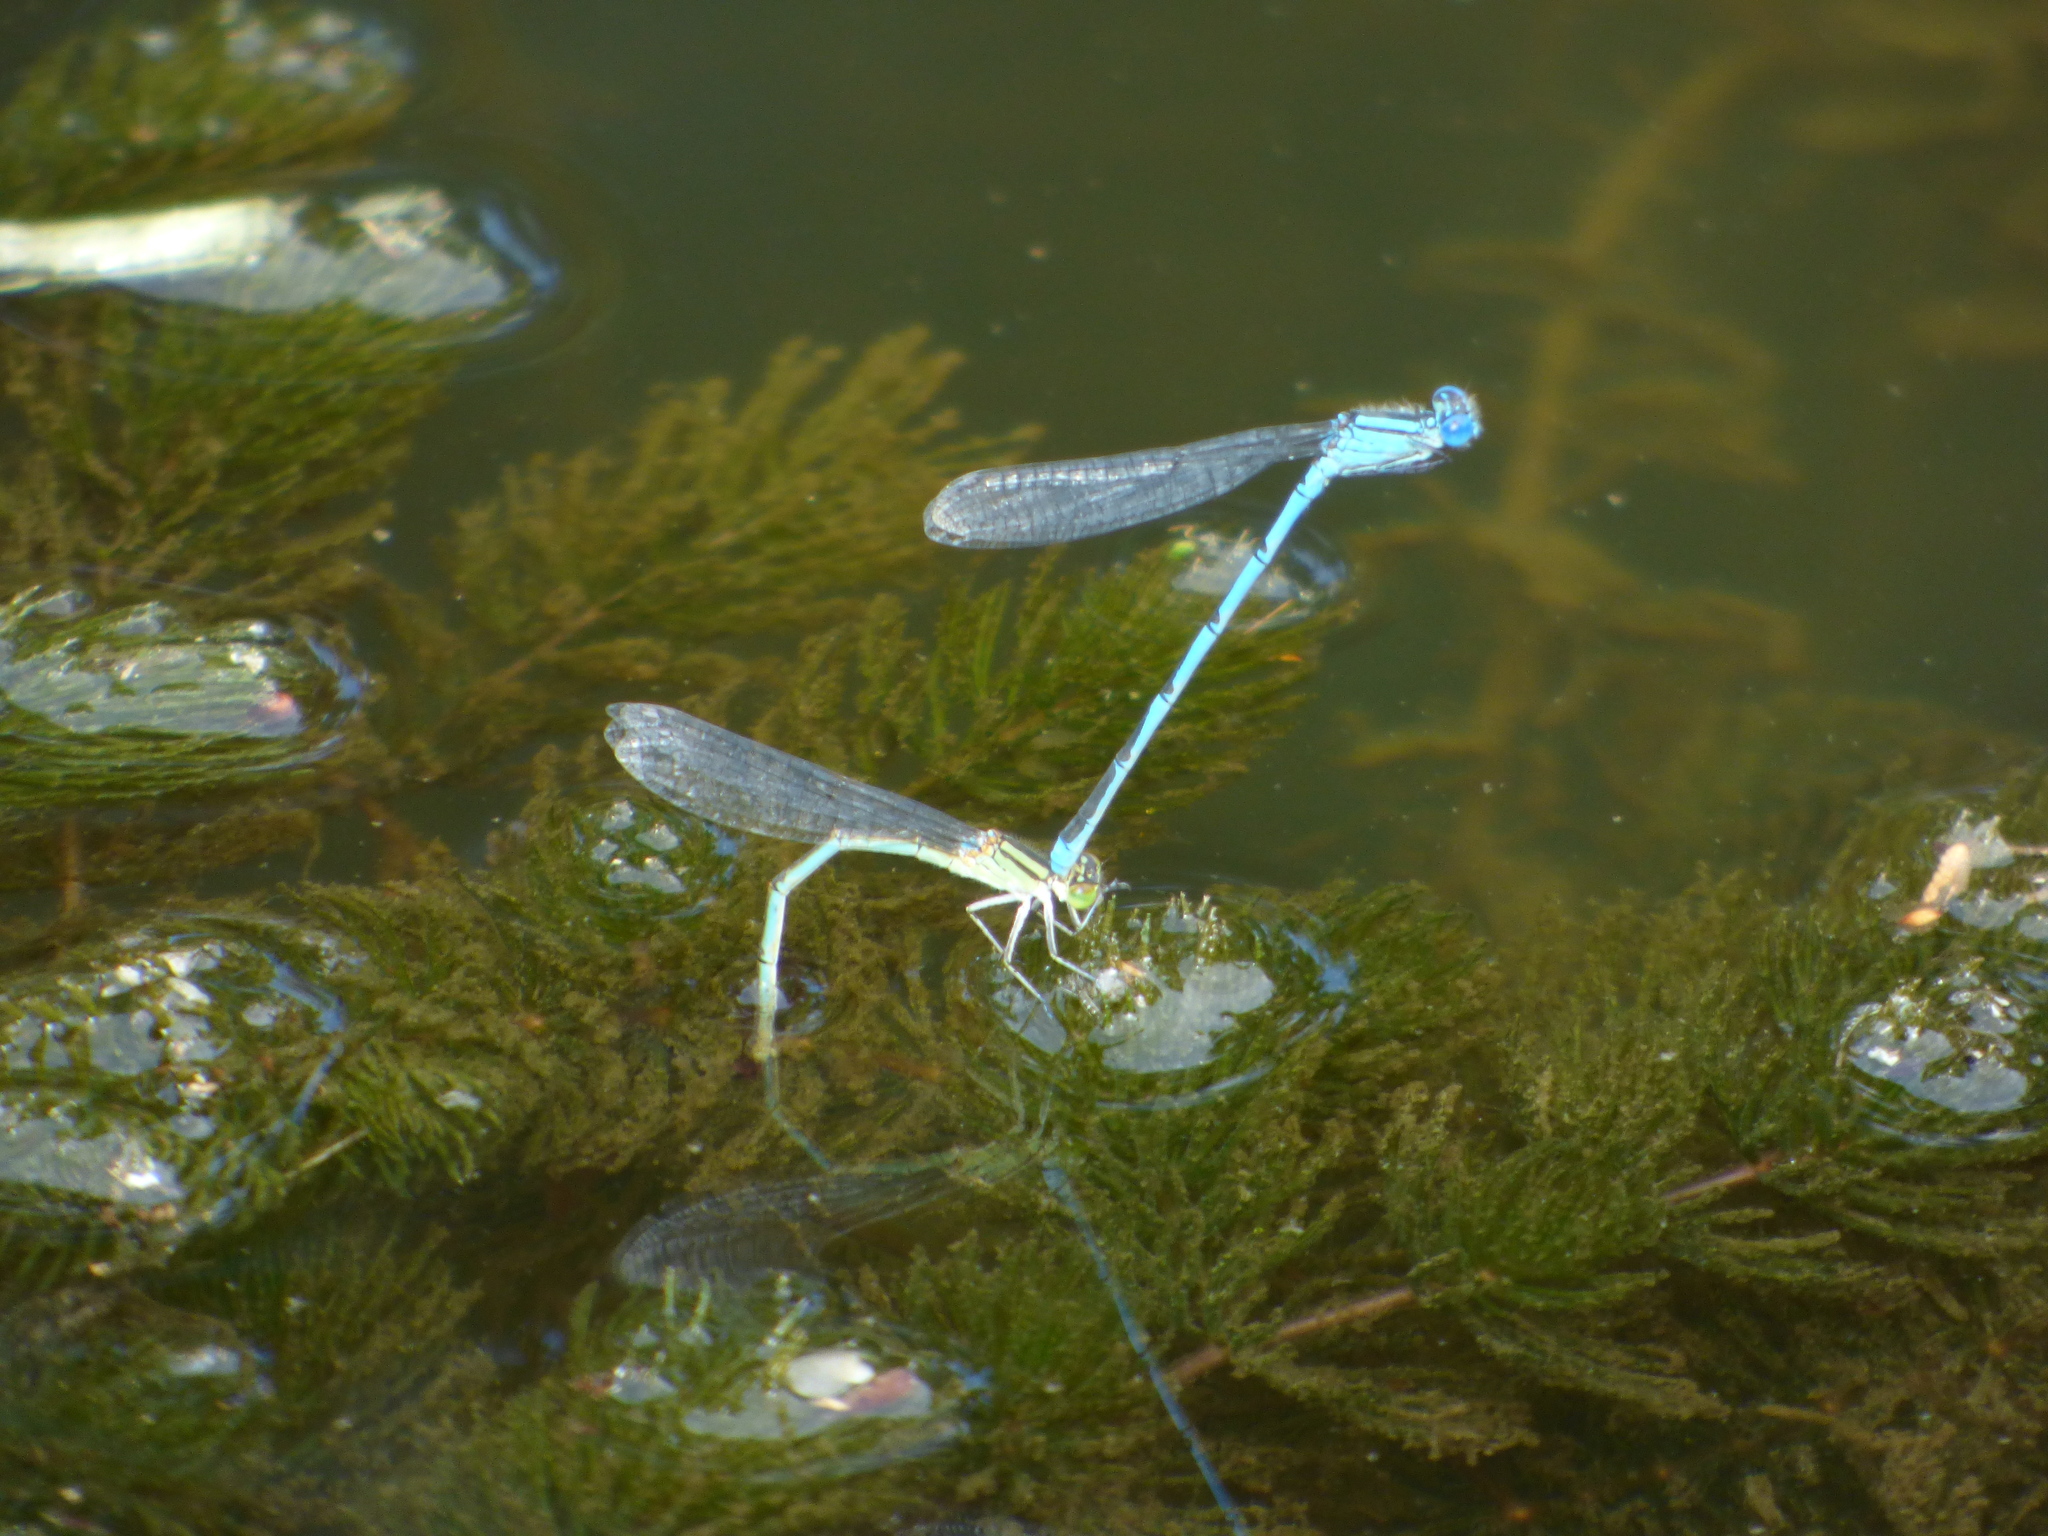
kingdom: Animalia
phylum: Arthropoda
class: Insecta
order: Odonata
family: Coenagrionidae
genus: Erythromma
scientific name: Erythromma lindenii
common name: Blue-eye
